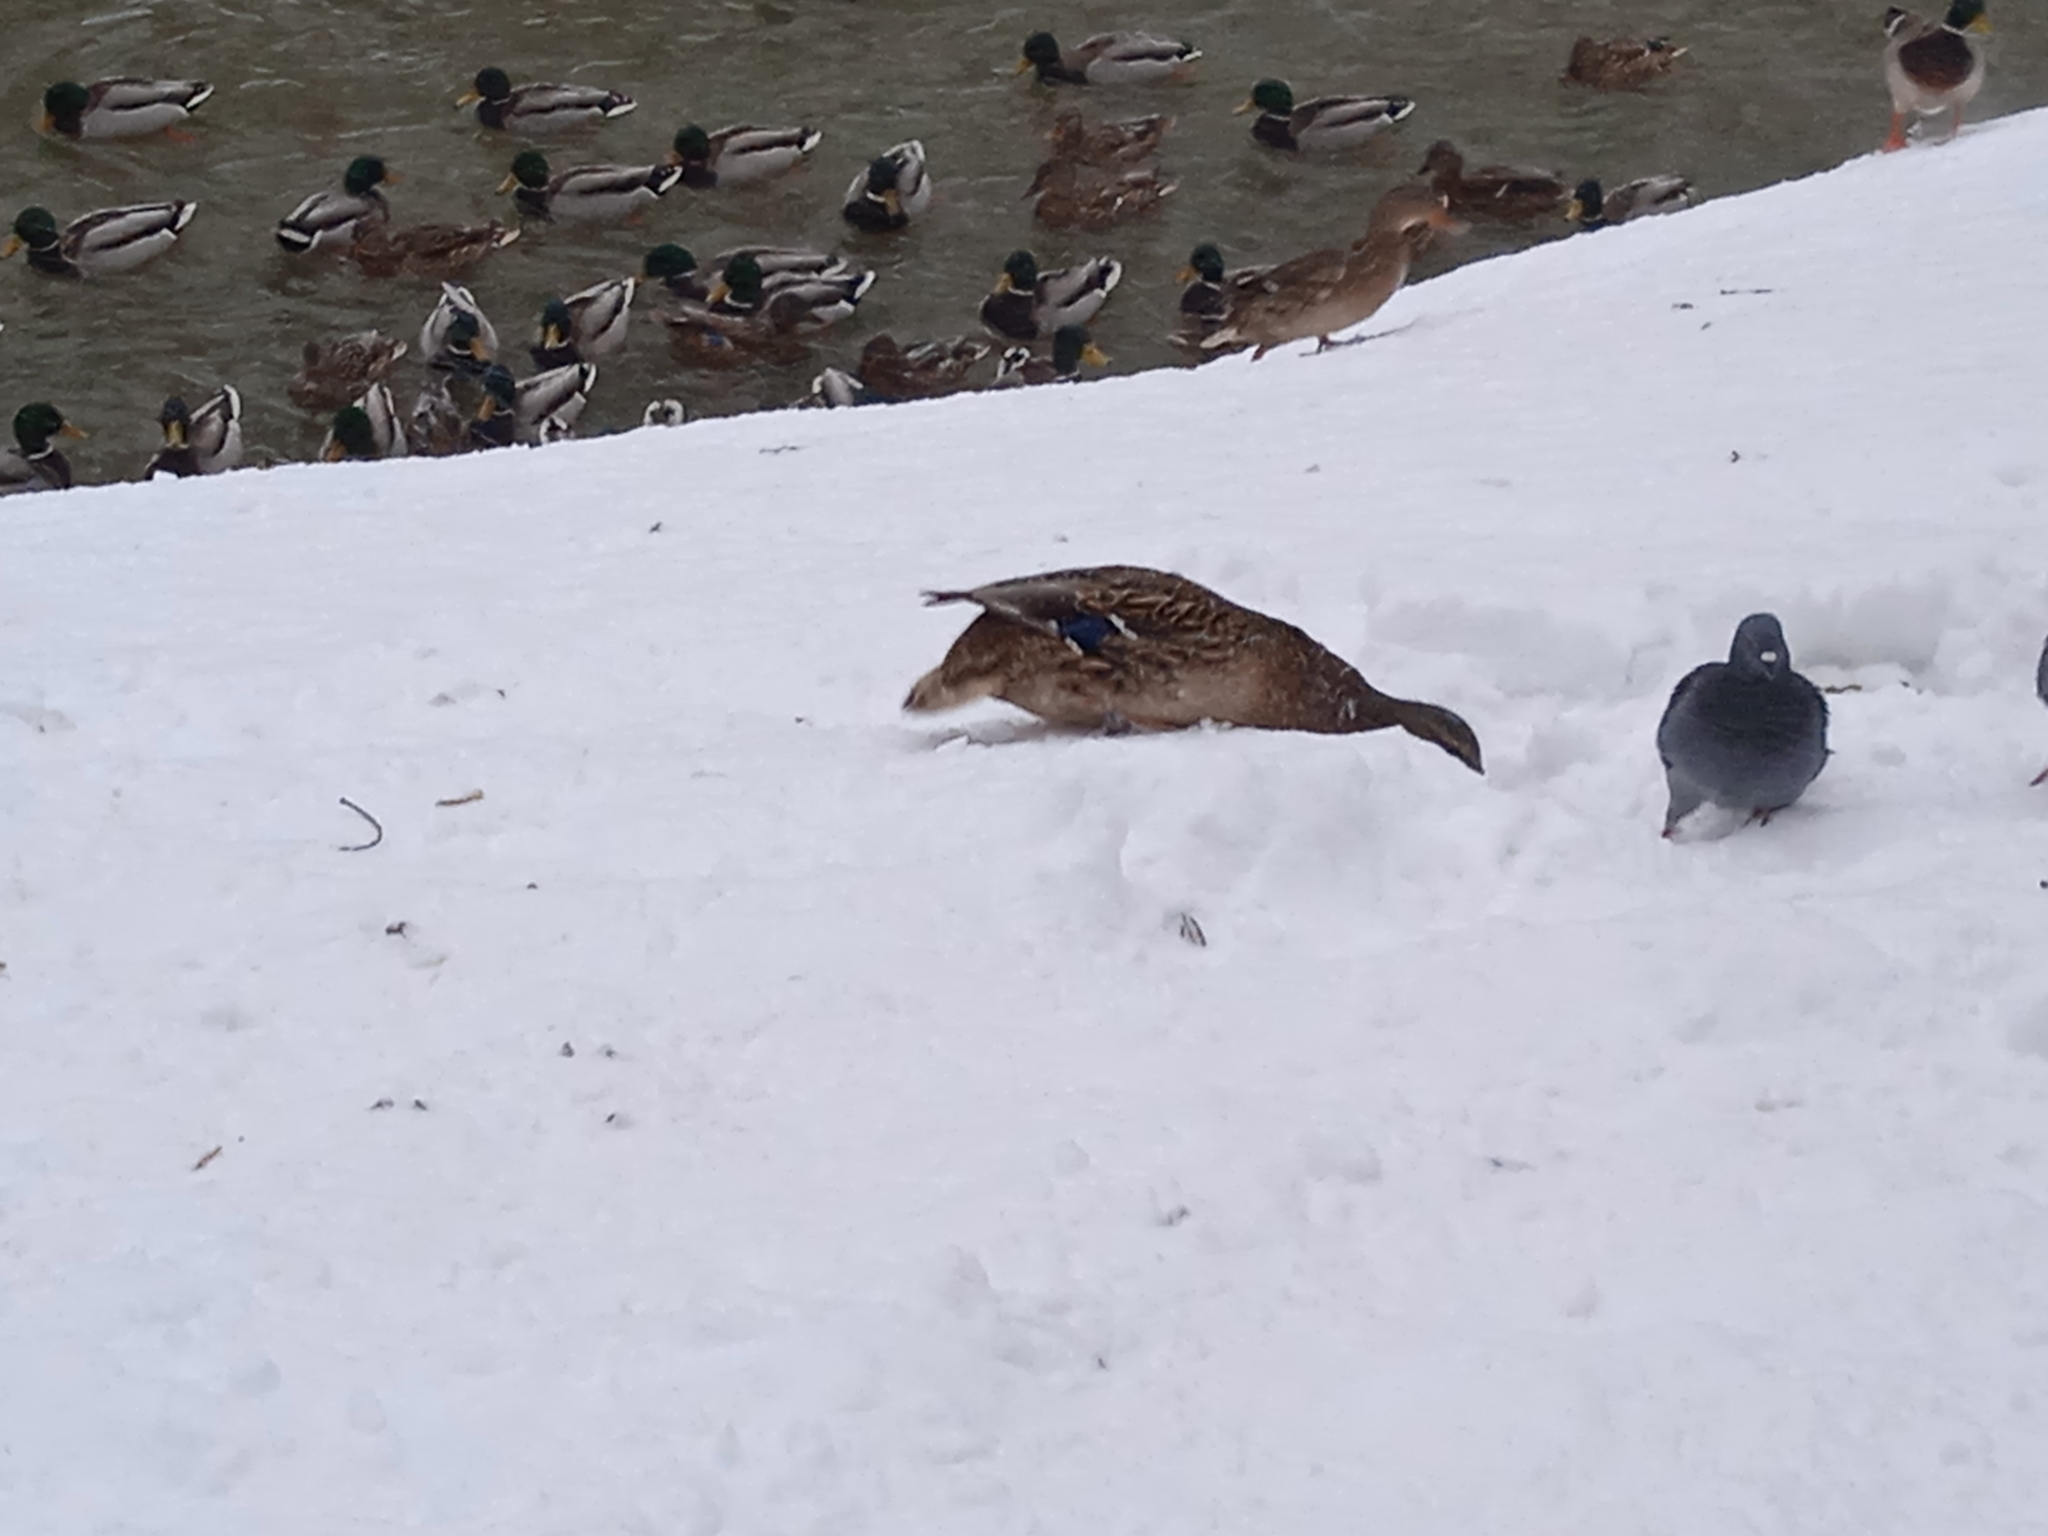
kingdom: Animalia
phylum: Chordata
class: Aves
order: Anseriformes
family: Anatidae
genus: Anas
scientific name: Anas platyrhynchos
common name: Mallard
